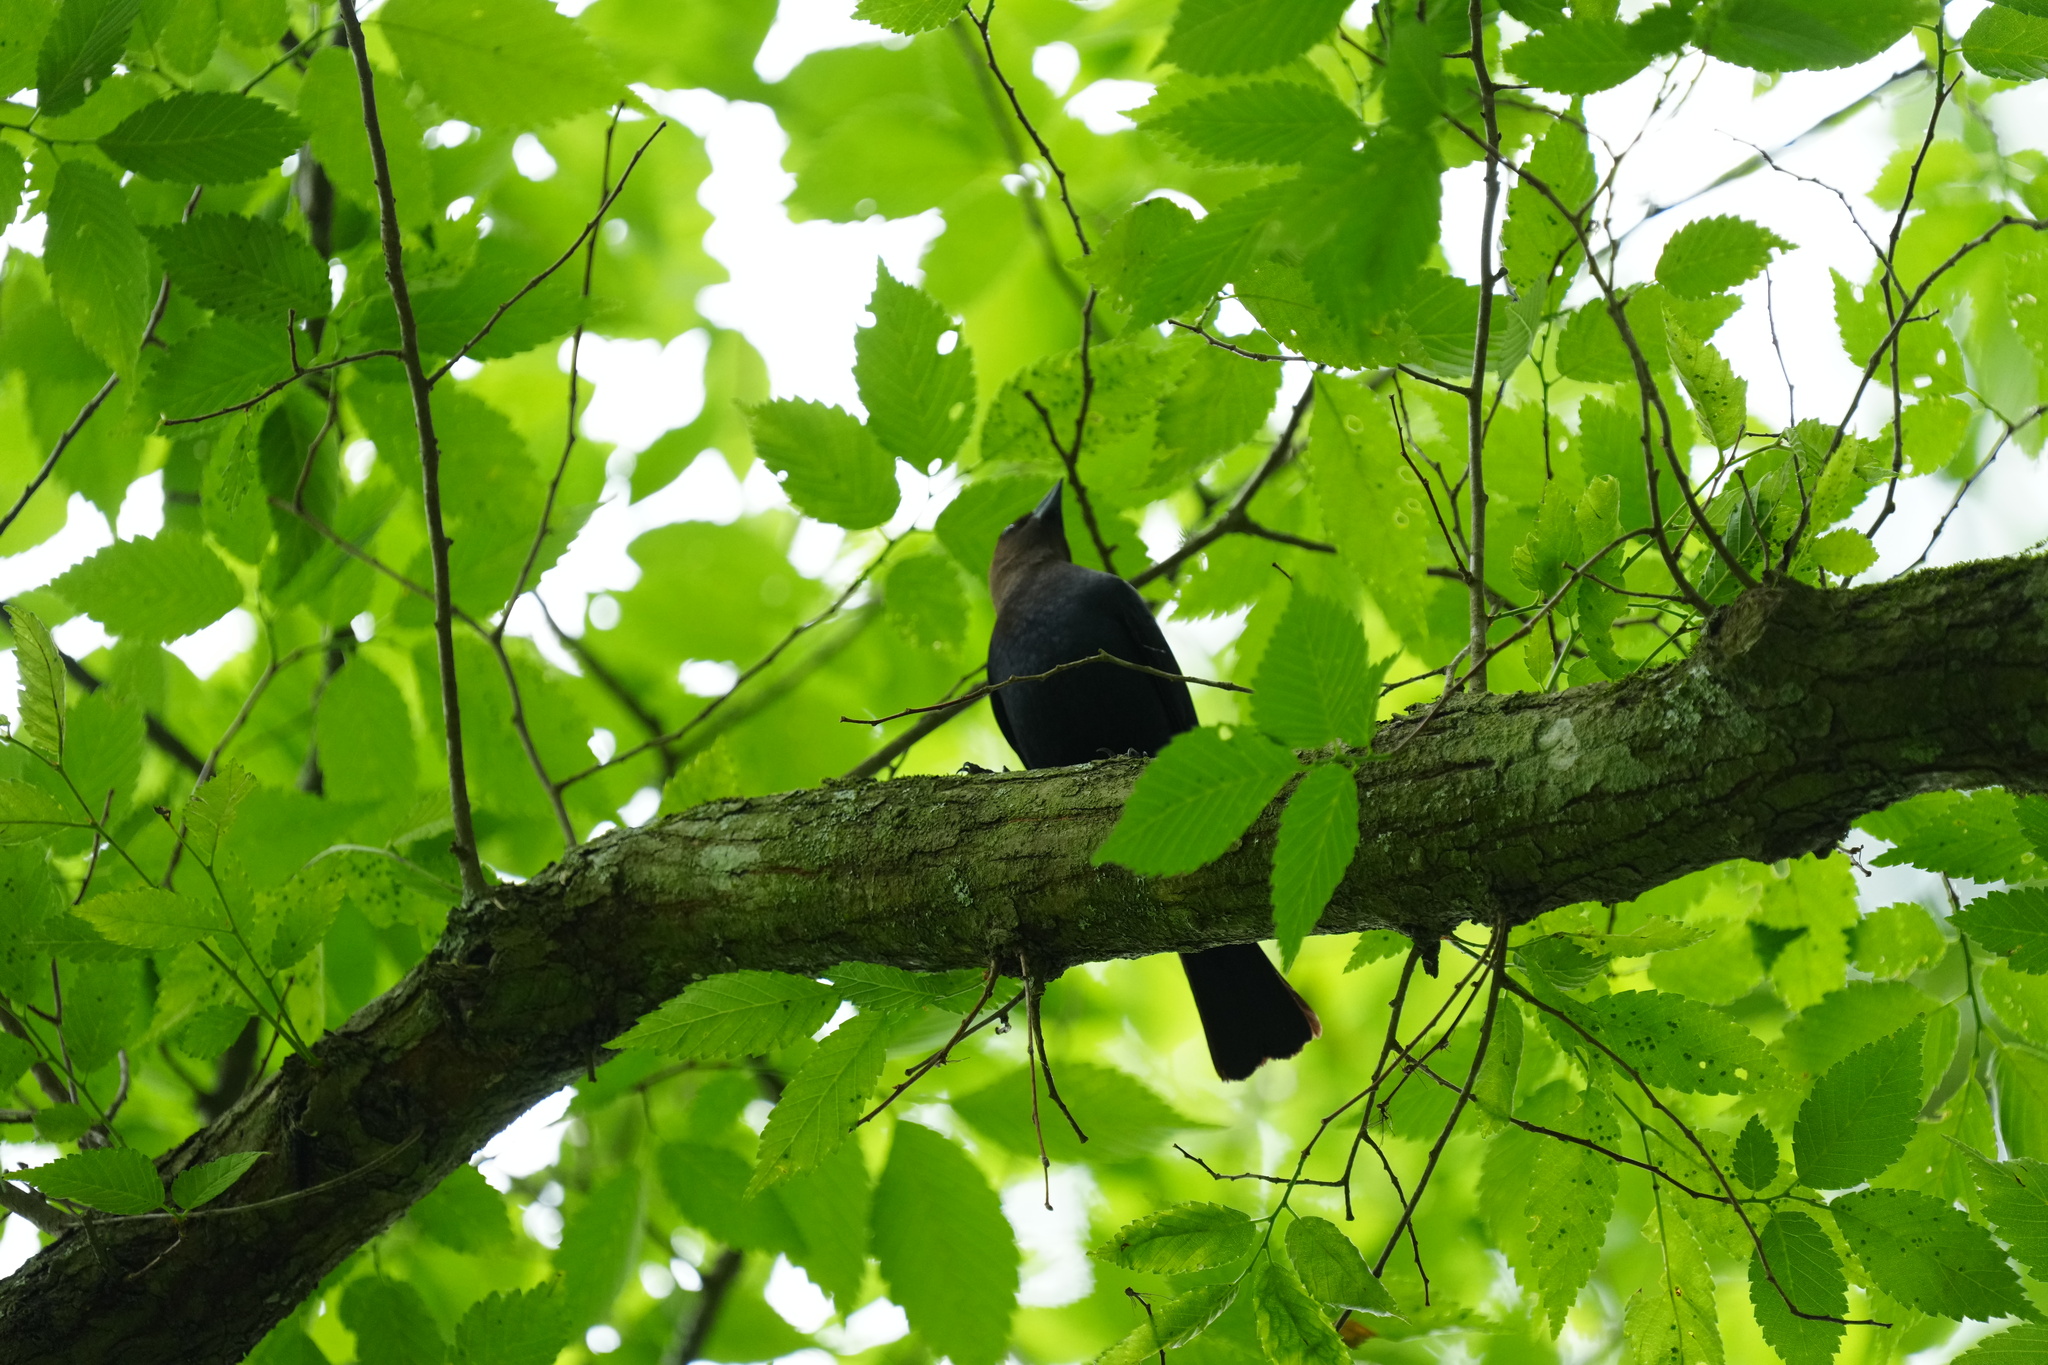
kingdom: Animalia
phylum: Chordata
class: Aves
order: Passeriformes
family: Icteridae
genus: Molothrus
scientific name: Molothrus ater
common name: Brown-headed cowbird
